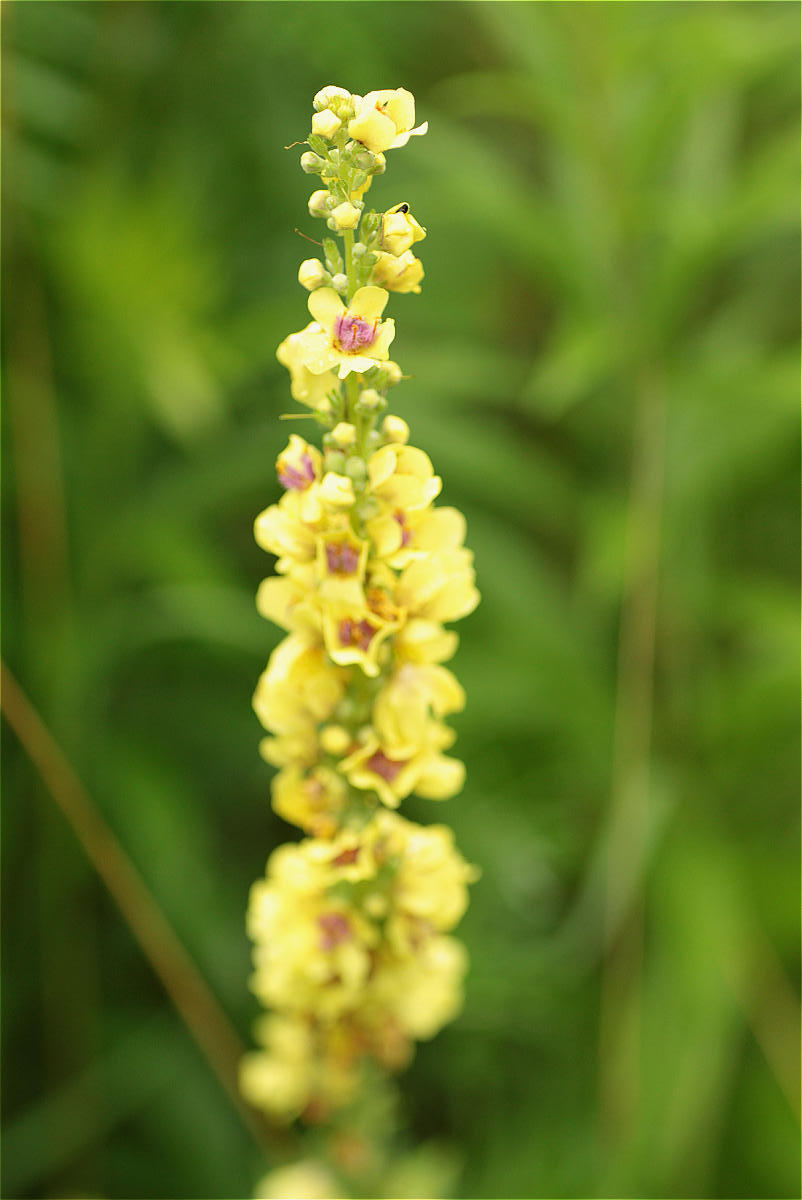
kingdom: Plantae
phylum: Tracheophyta
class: Magnoliopsida
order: Lamiales
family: Scrophulariaceae
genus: Verbascum
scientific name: Verbascum nigrum
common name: Dark mullein
